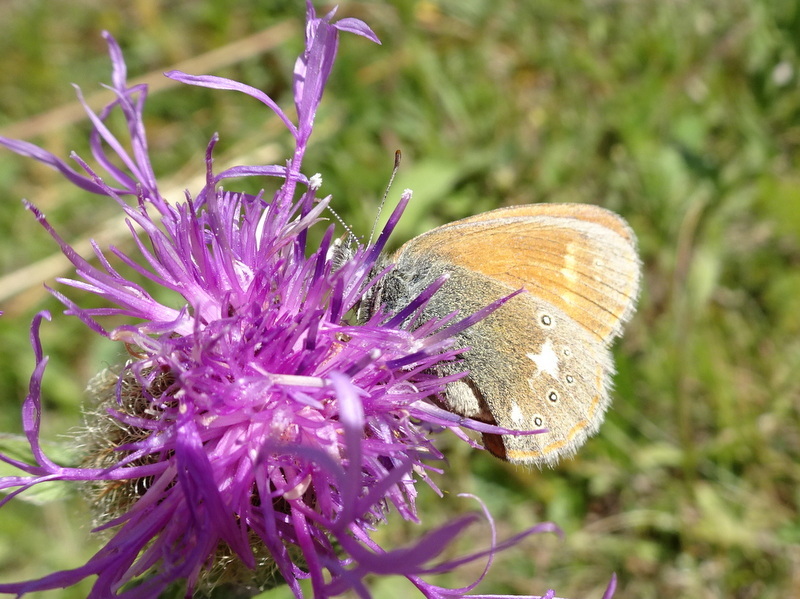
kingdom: Animalia
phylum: Arthropoda
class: Insecta
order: Lepidoptera
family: Nymphalidae
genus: Coenonympha
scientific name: Coenonympha iphis
